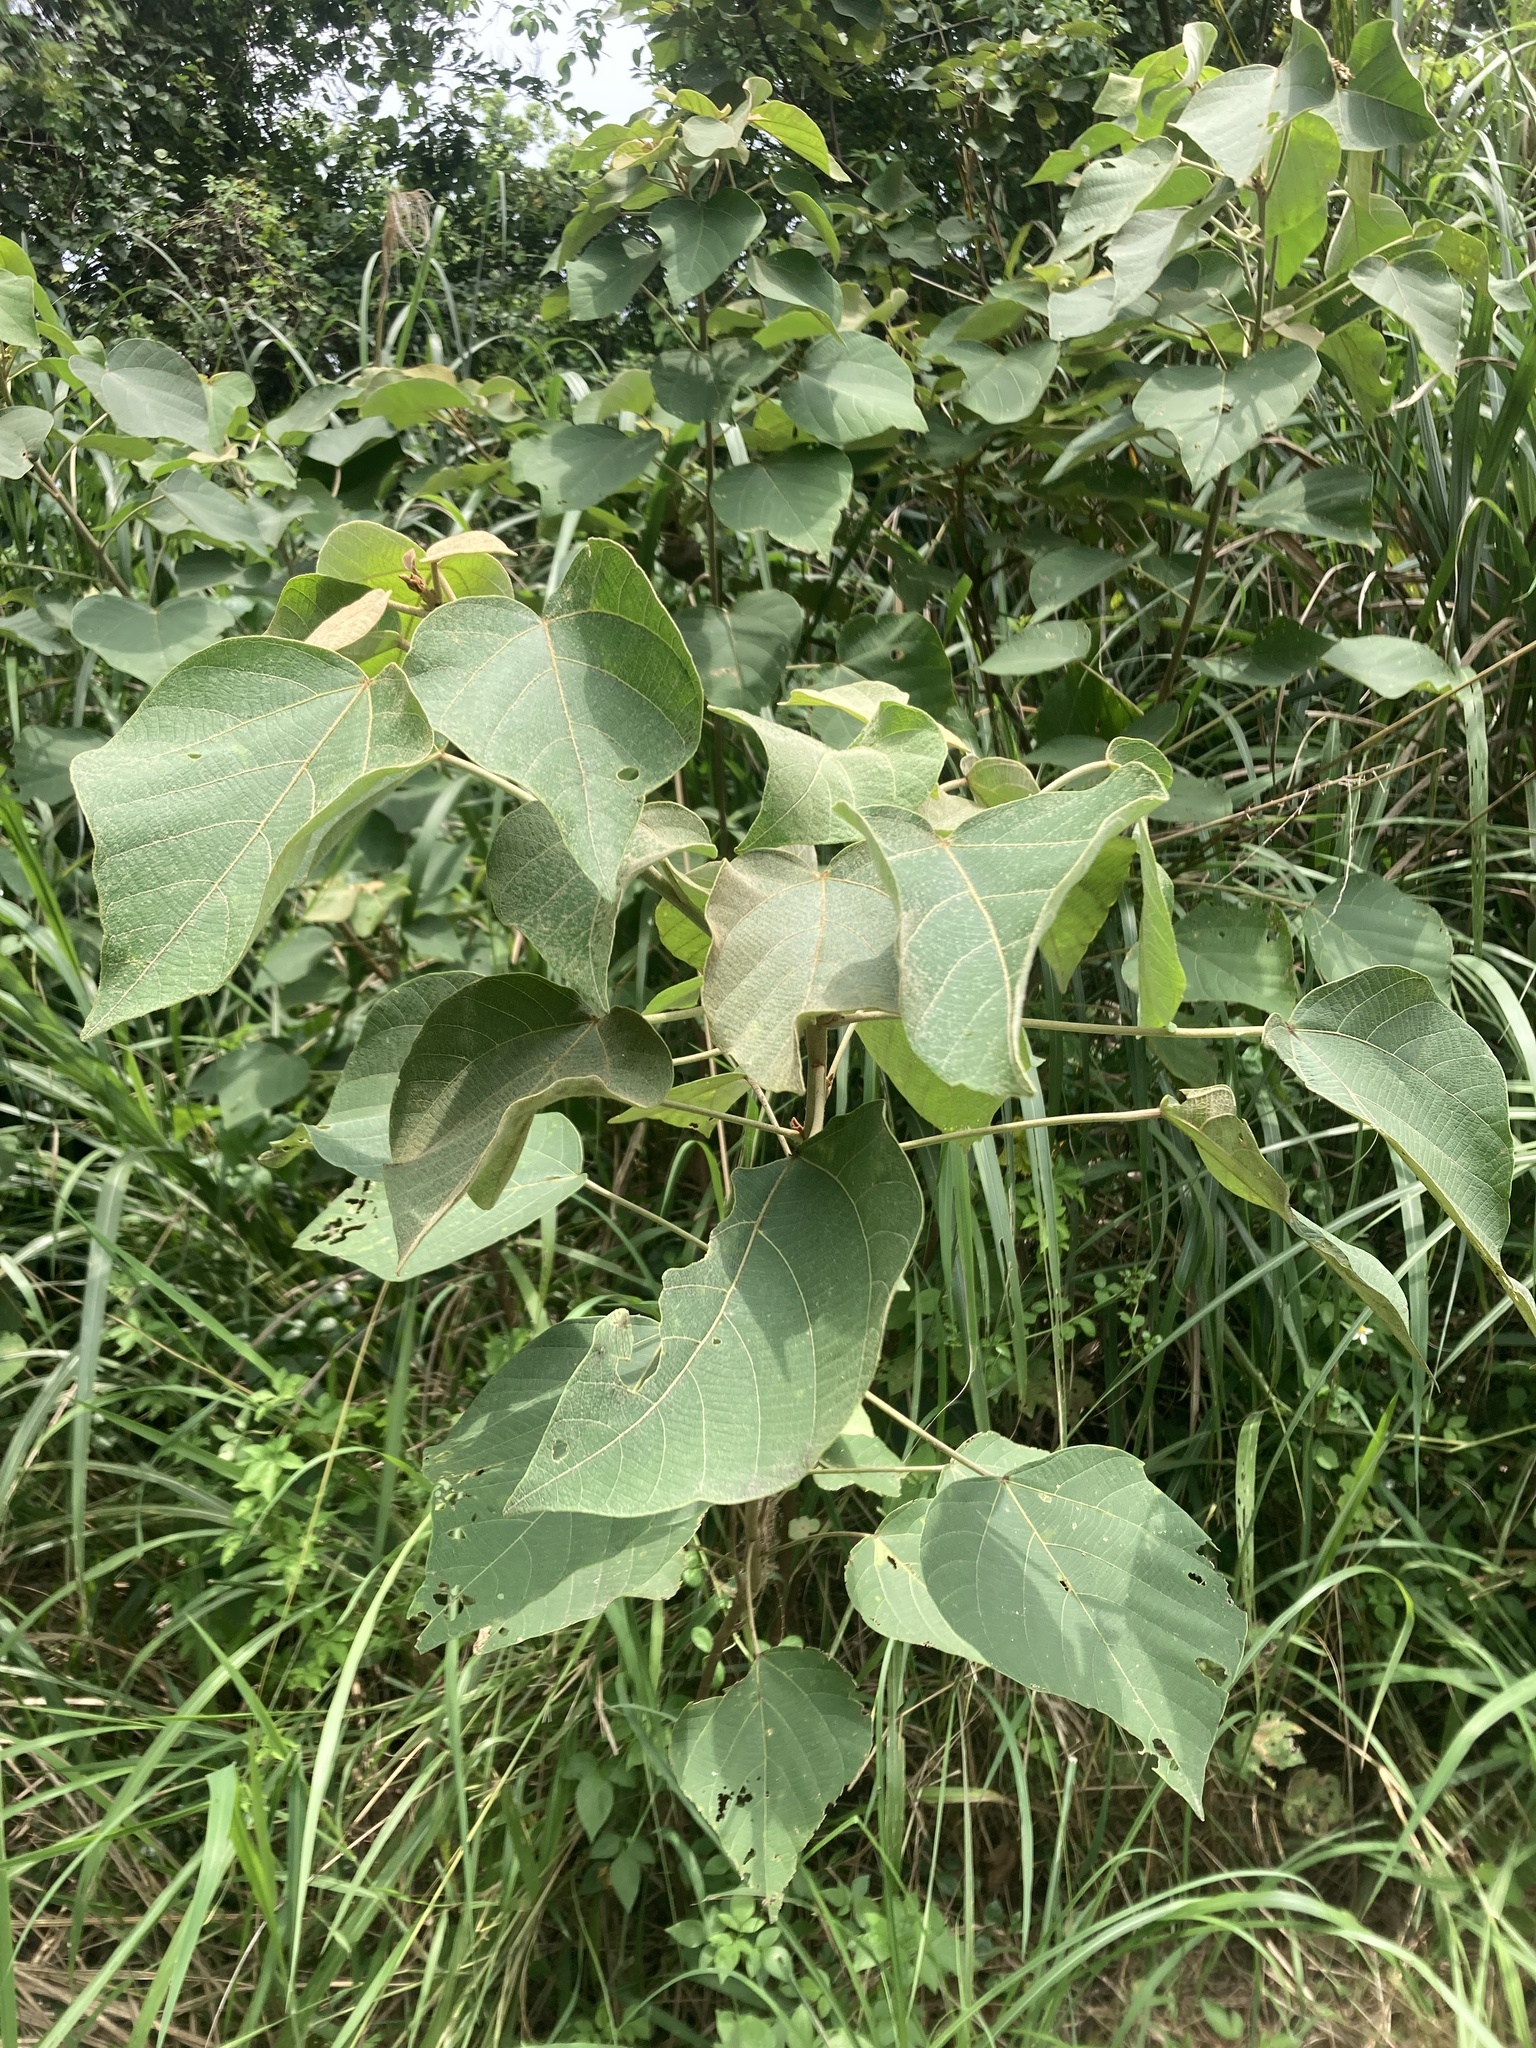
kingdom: Plantae
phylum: Tracheophyta
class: Magnoliopsida
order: Malpighiales
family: Euphorbiaceae
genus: Mallotus
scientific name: Mallotus japonicus
